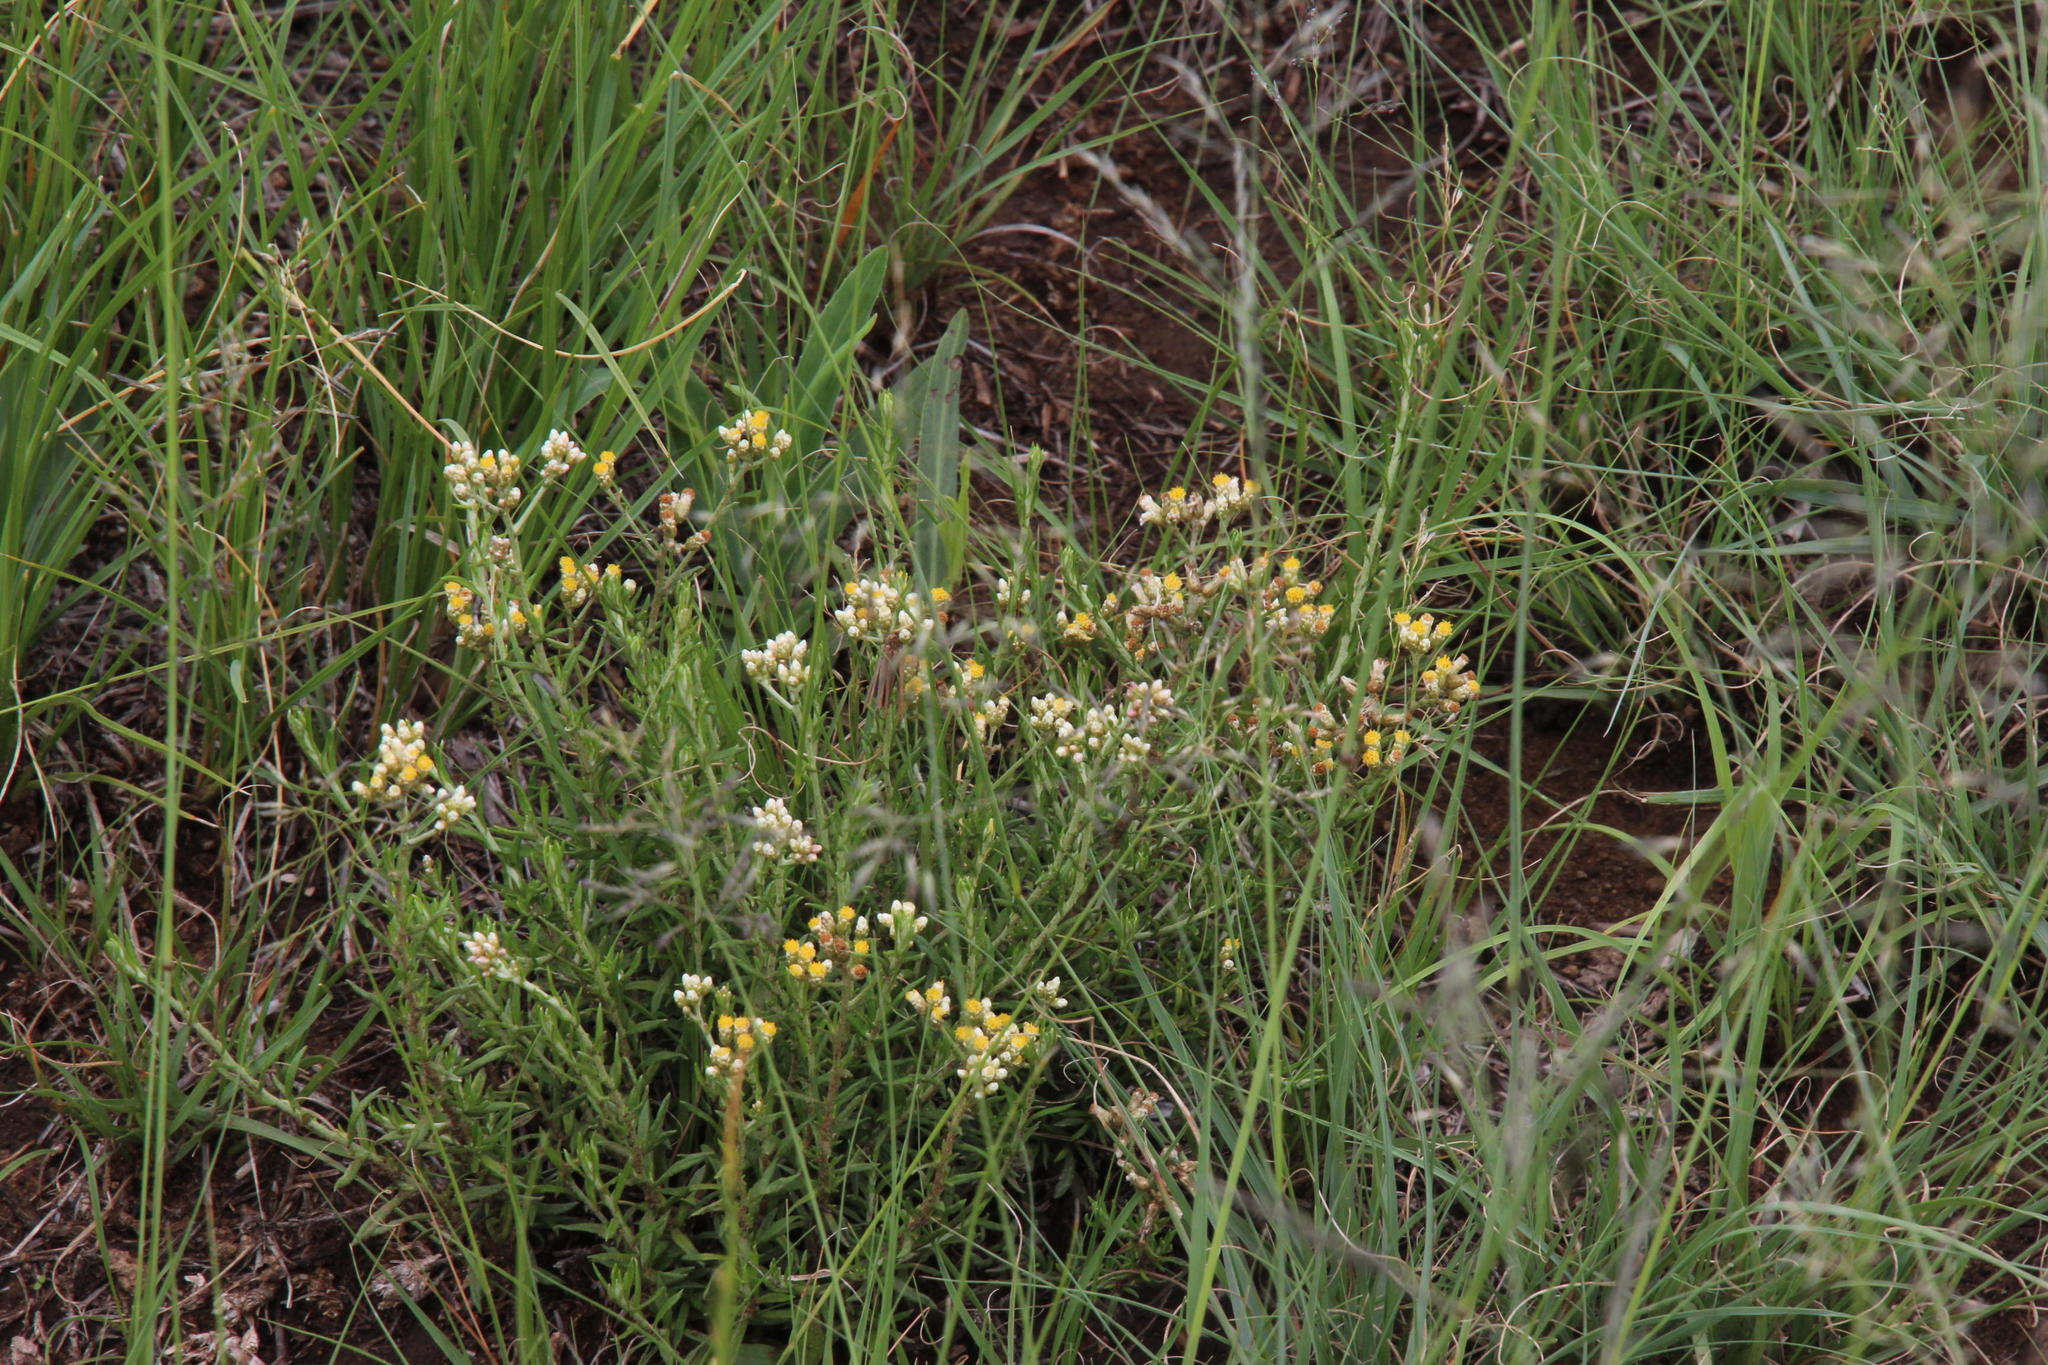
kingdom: Plantae
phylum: Tracheophyta
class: Magnoliopsida
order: Asterales
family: Asteraceae
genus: Helichrysum
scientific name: Helichrysum rosum
